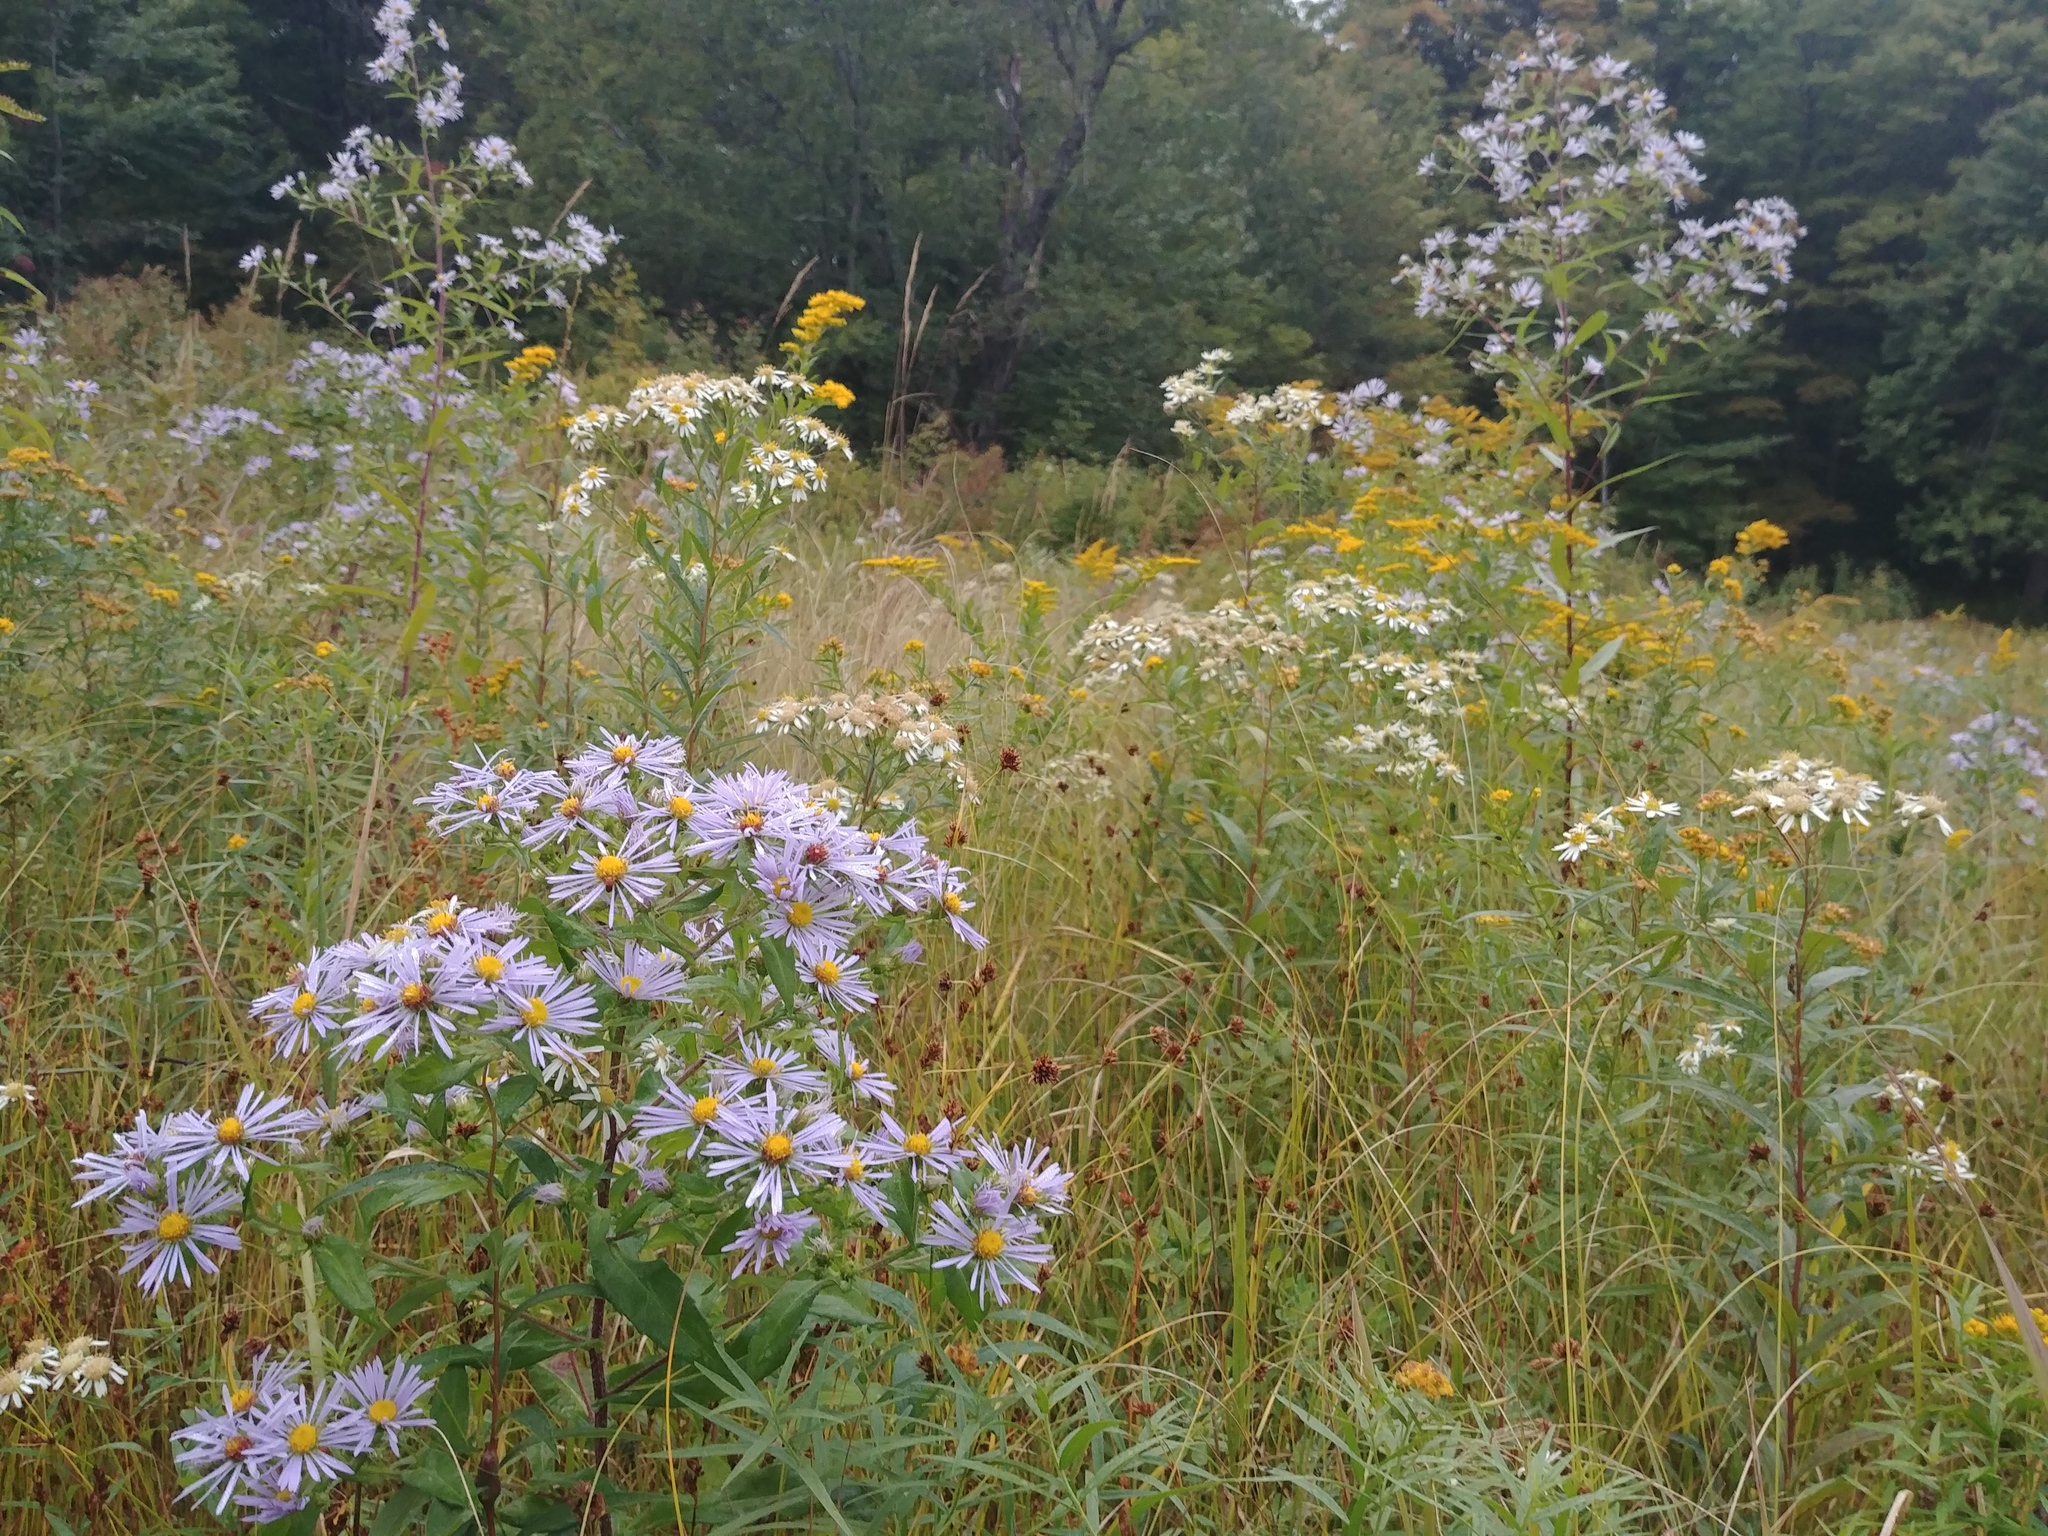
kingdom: Plantae
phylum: Tracheophyta
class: Magnoliopsida
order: Asterales
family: Asteraceae
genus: Symphyotrichum
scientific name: Symphyotrichum puniceum
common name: Bog aster
